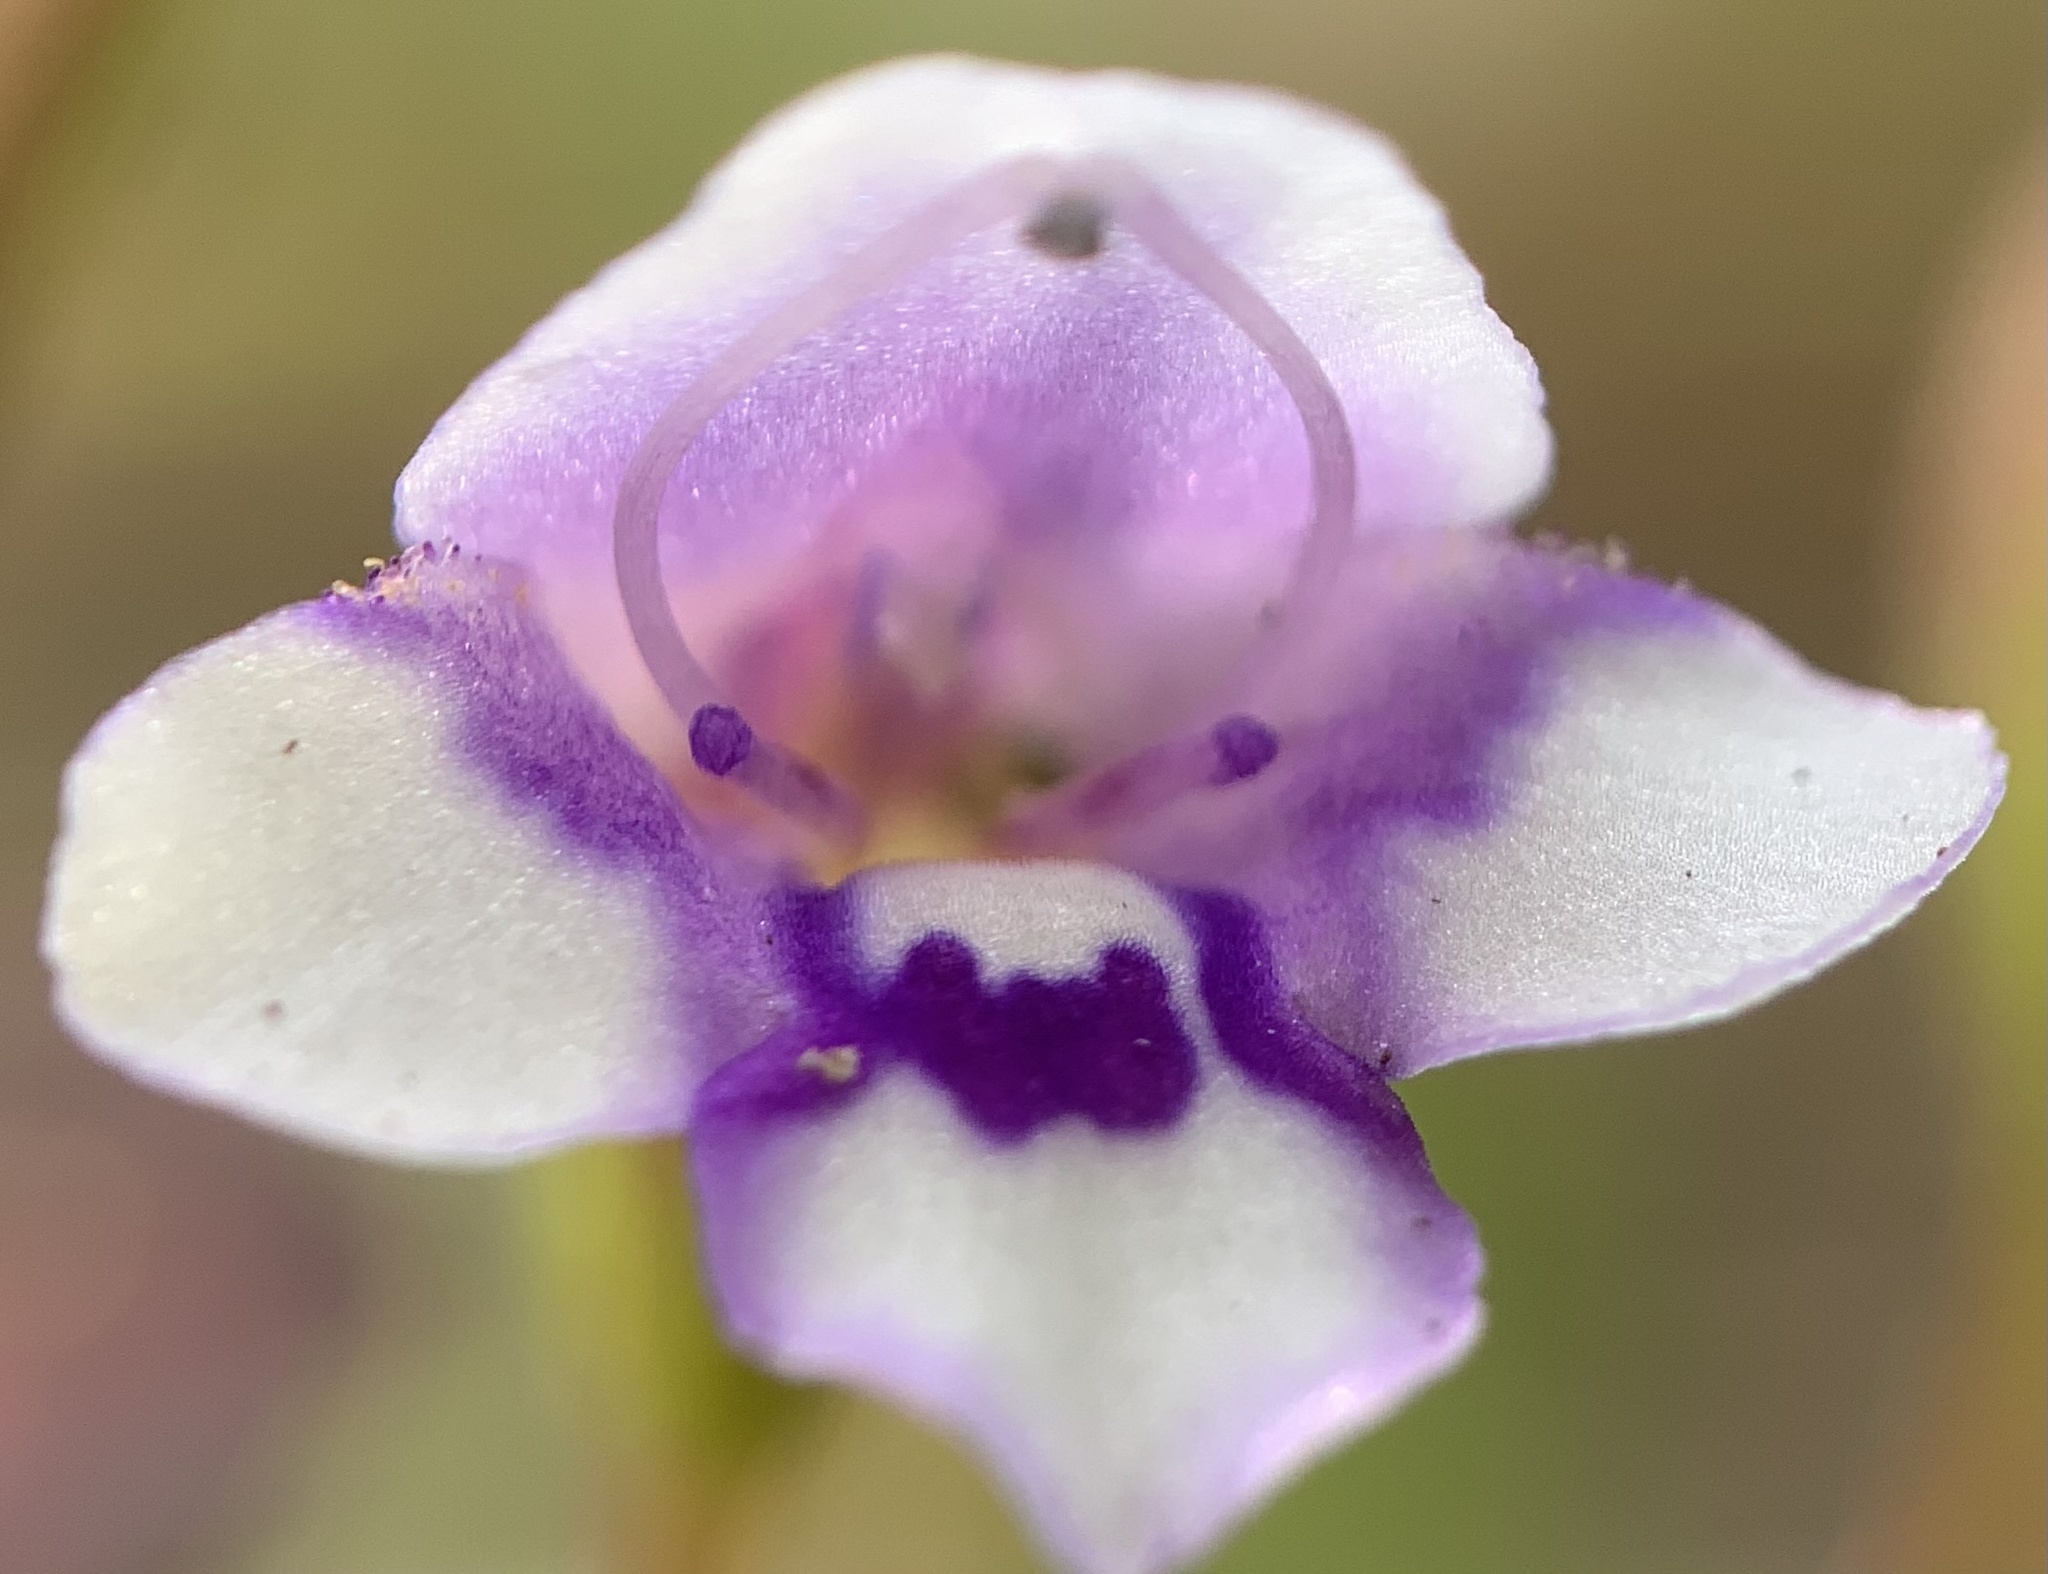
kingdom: Plantae
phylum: Tracheophyta
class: Magnoliopsida
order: Lamiales
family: Linderniaceae
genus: Torenia
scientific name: Torenia crustacea
